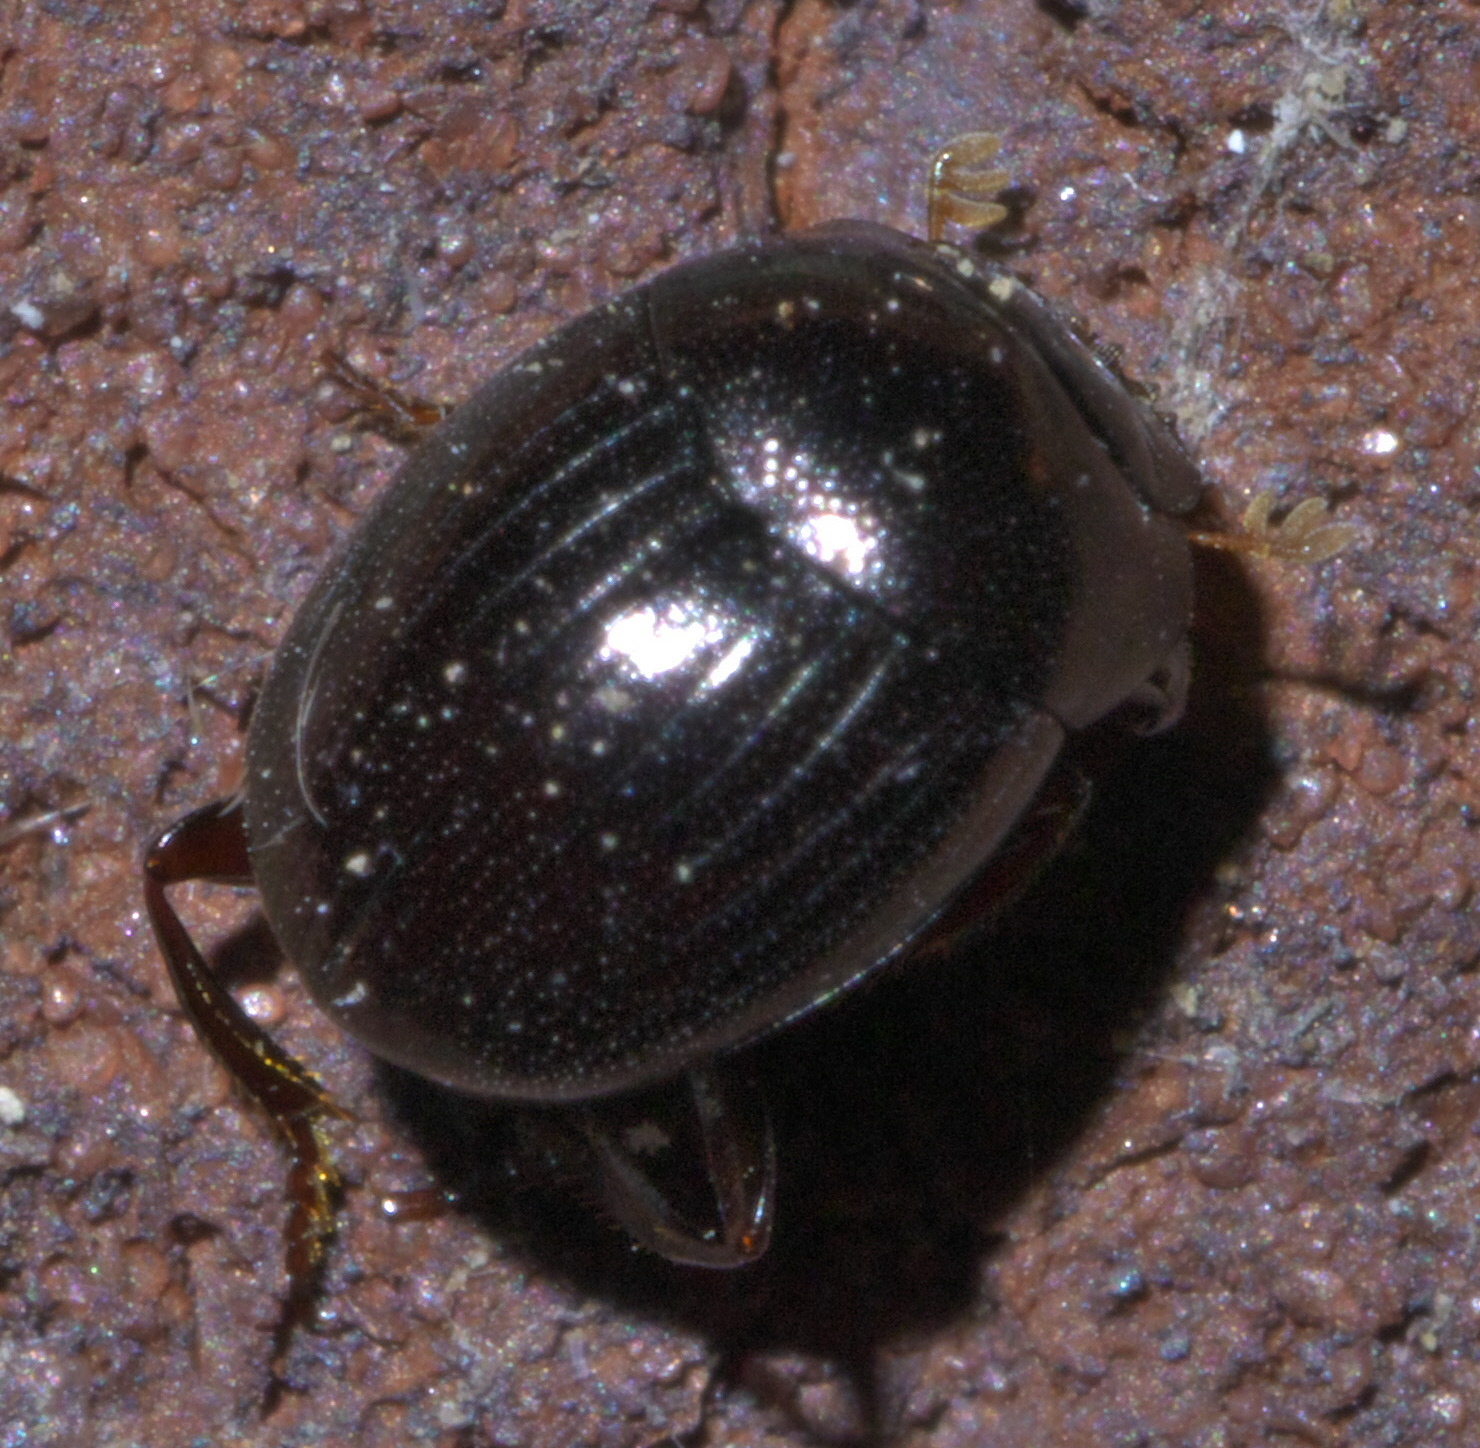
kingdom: Animalia
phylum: Arthropoda
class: Insecta
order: Coleoptera
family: Scarabaeidae
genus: Pseudocanthon
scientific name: Pseudocanthon perplexus
